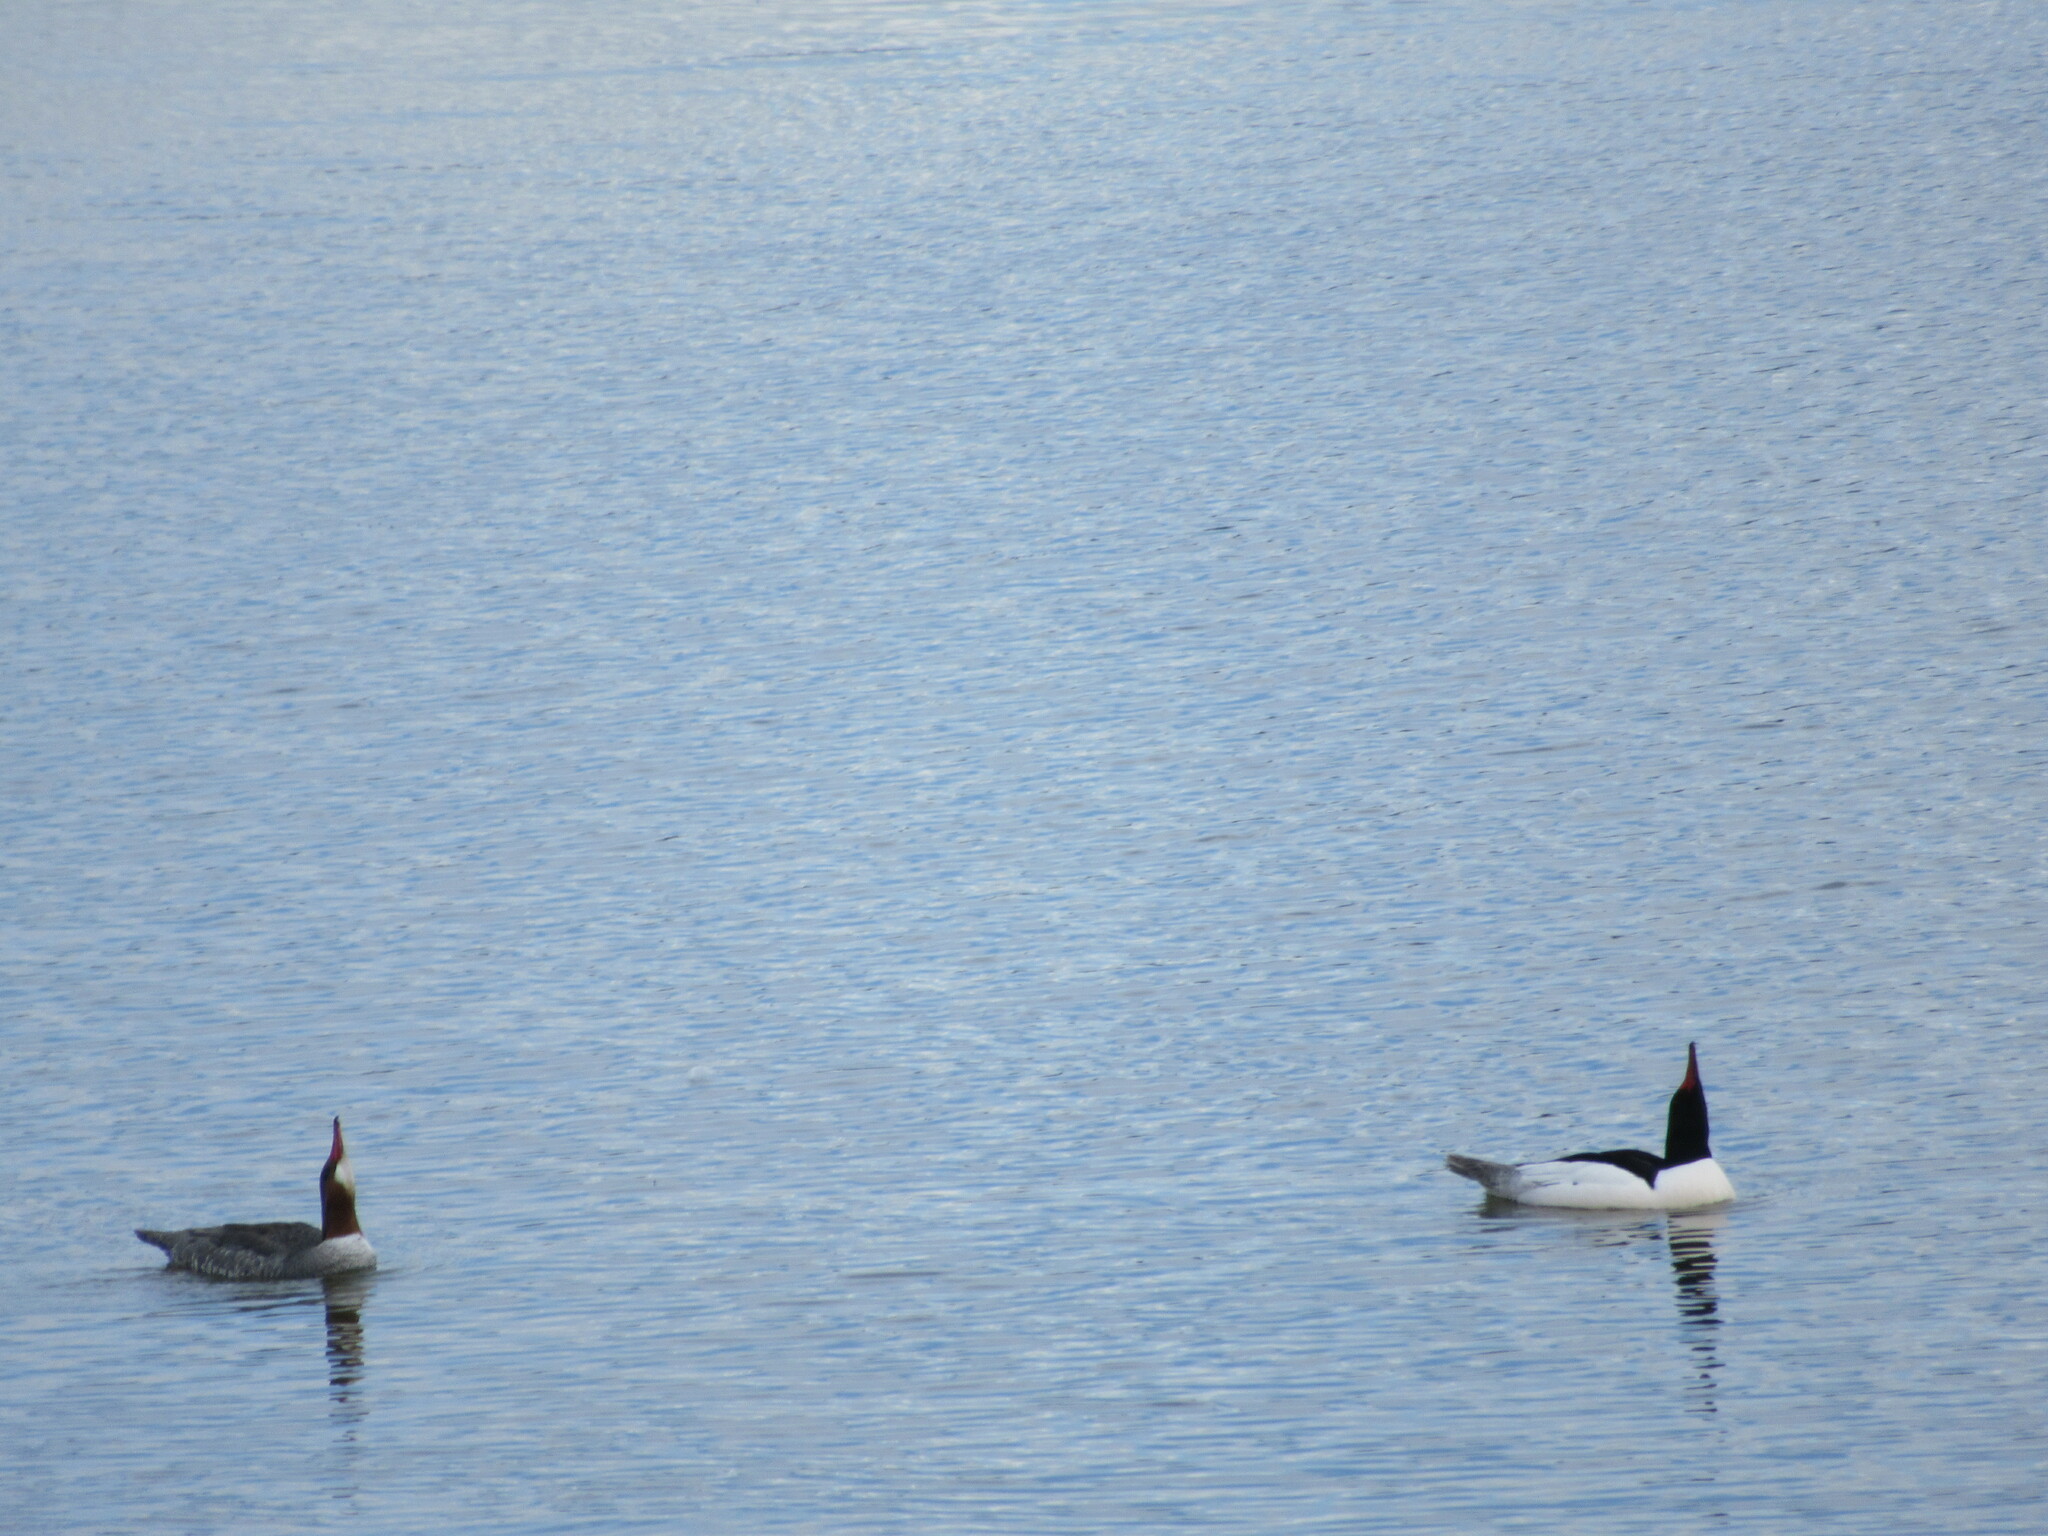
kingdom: Animalia
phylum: Chordata
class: Aves
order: Anseriformes
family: Anatidae
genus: Mergus
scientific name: Mergus merganser
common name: Common merganser
